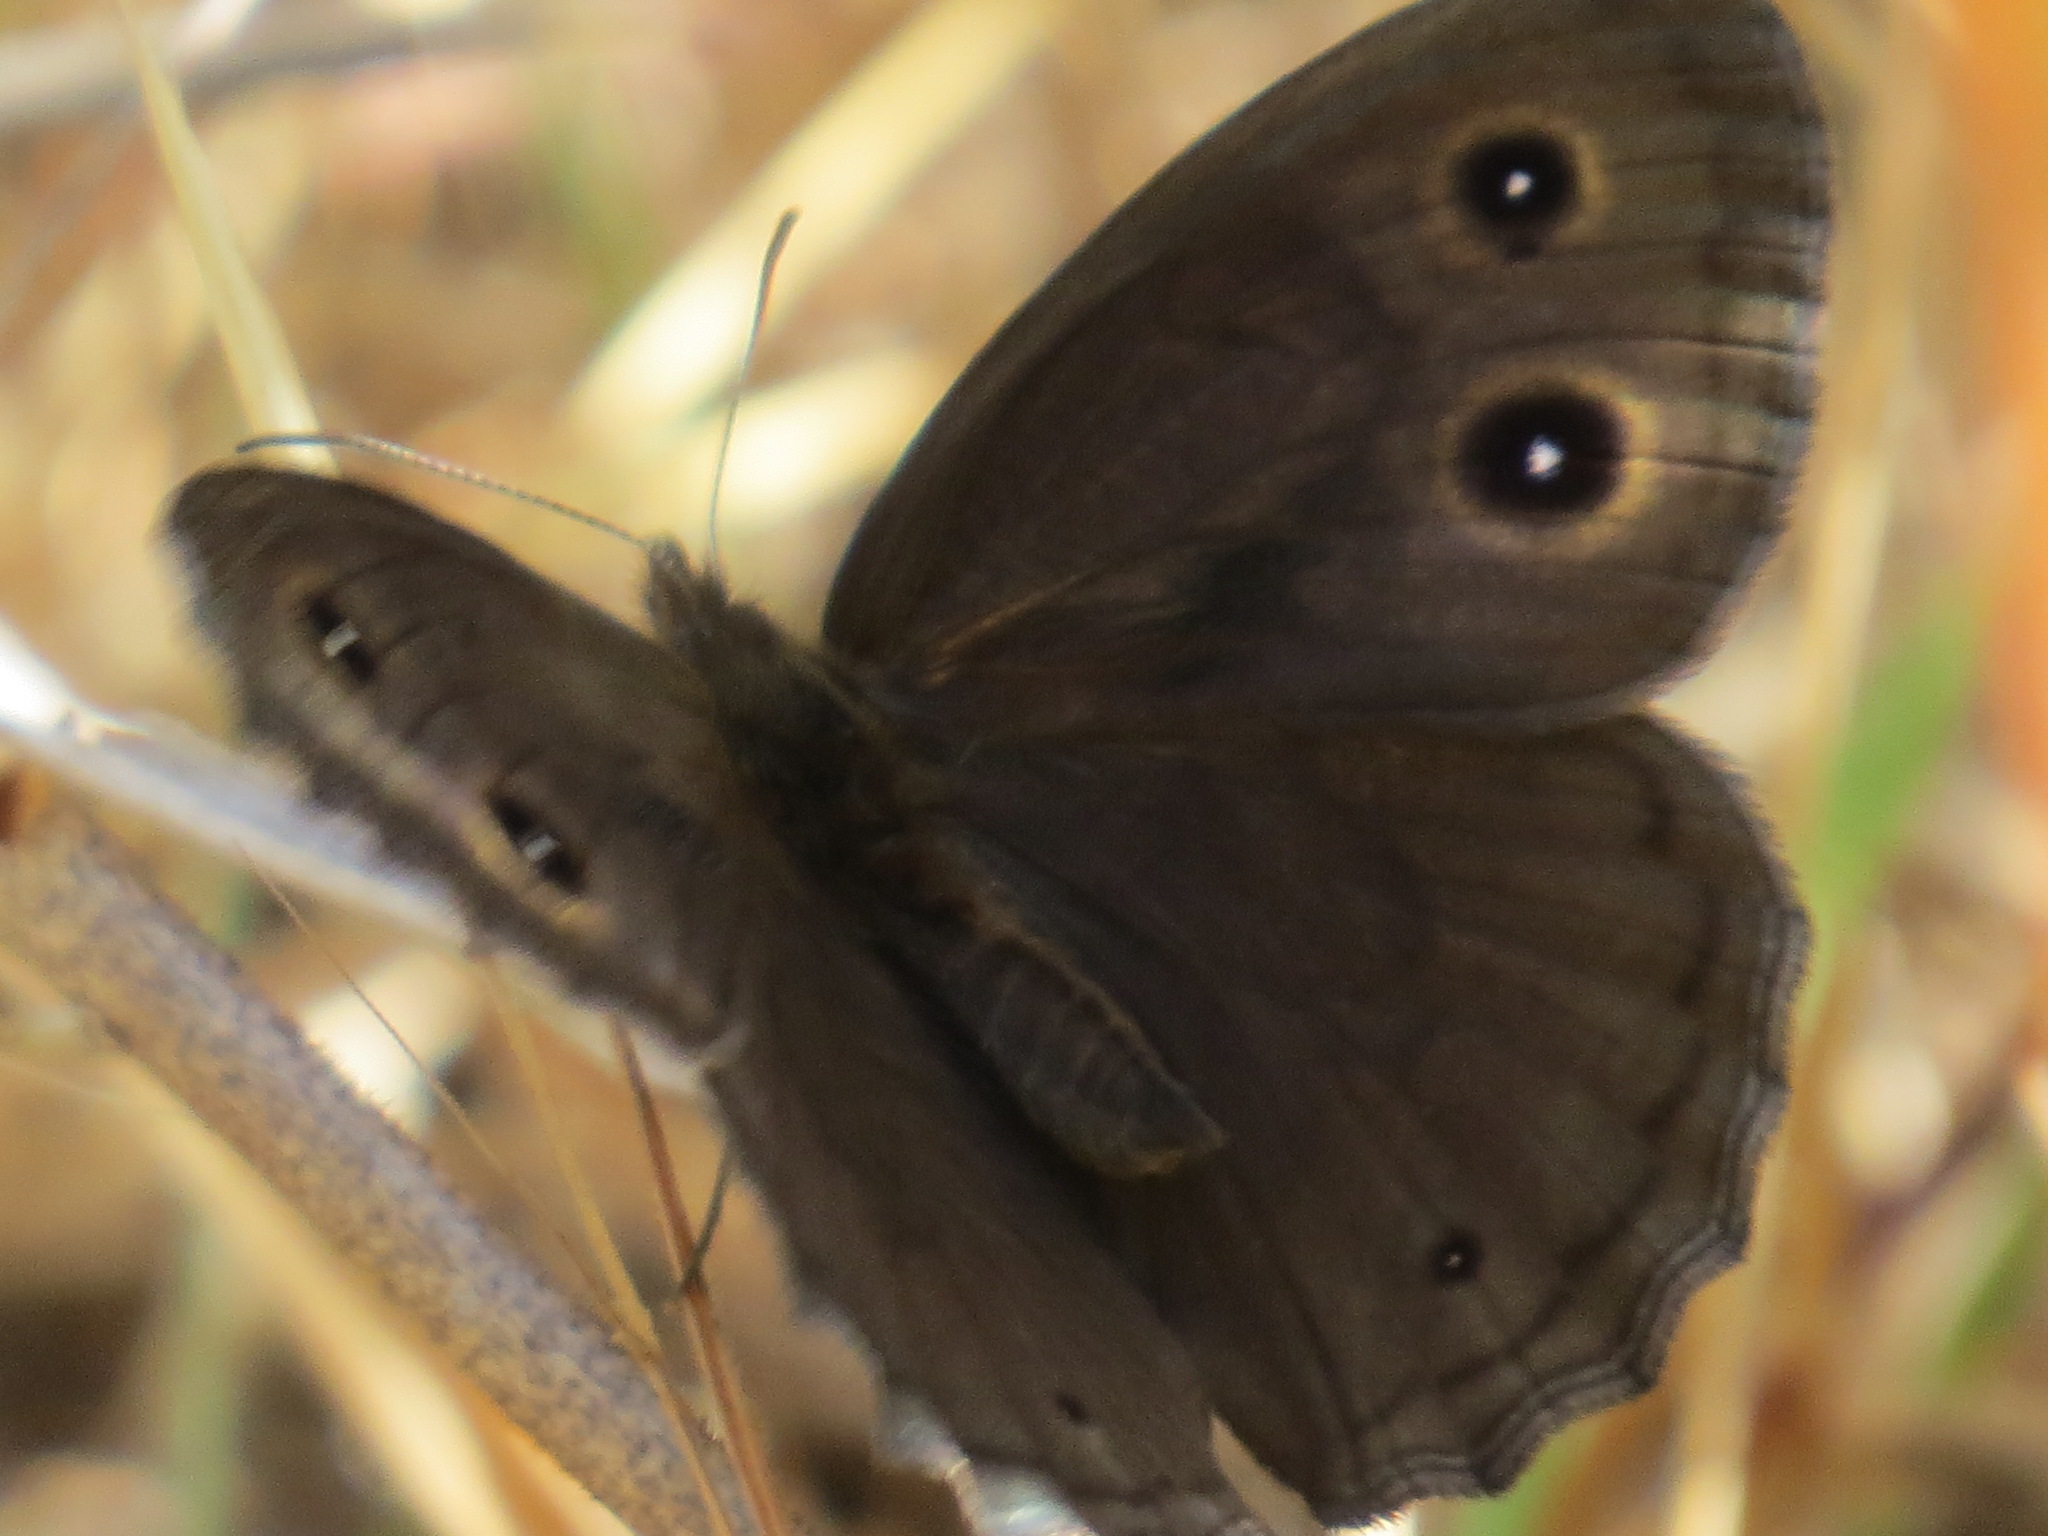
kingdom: Animalia
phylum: Arthropoda
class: Insecta
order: Lepidoptera
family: Nymphalidae
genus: Cercyonis
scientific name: Cercyonis pegala
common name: Common wood-nymph
